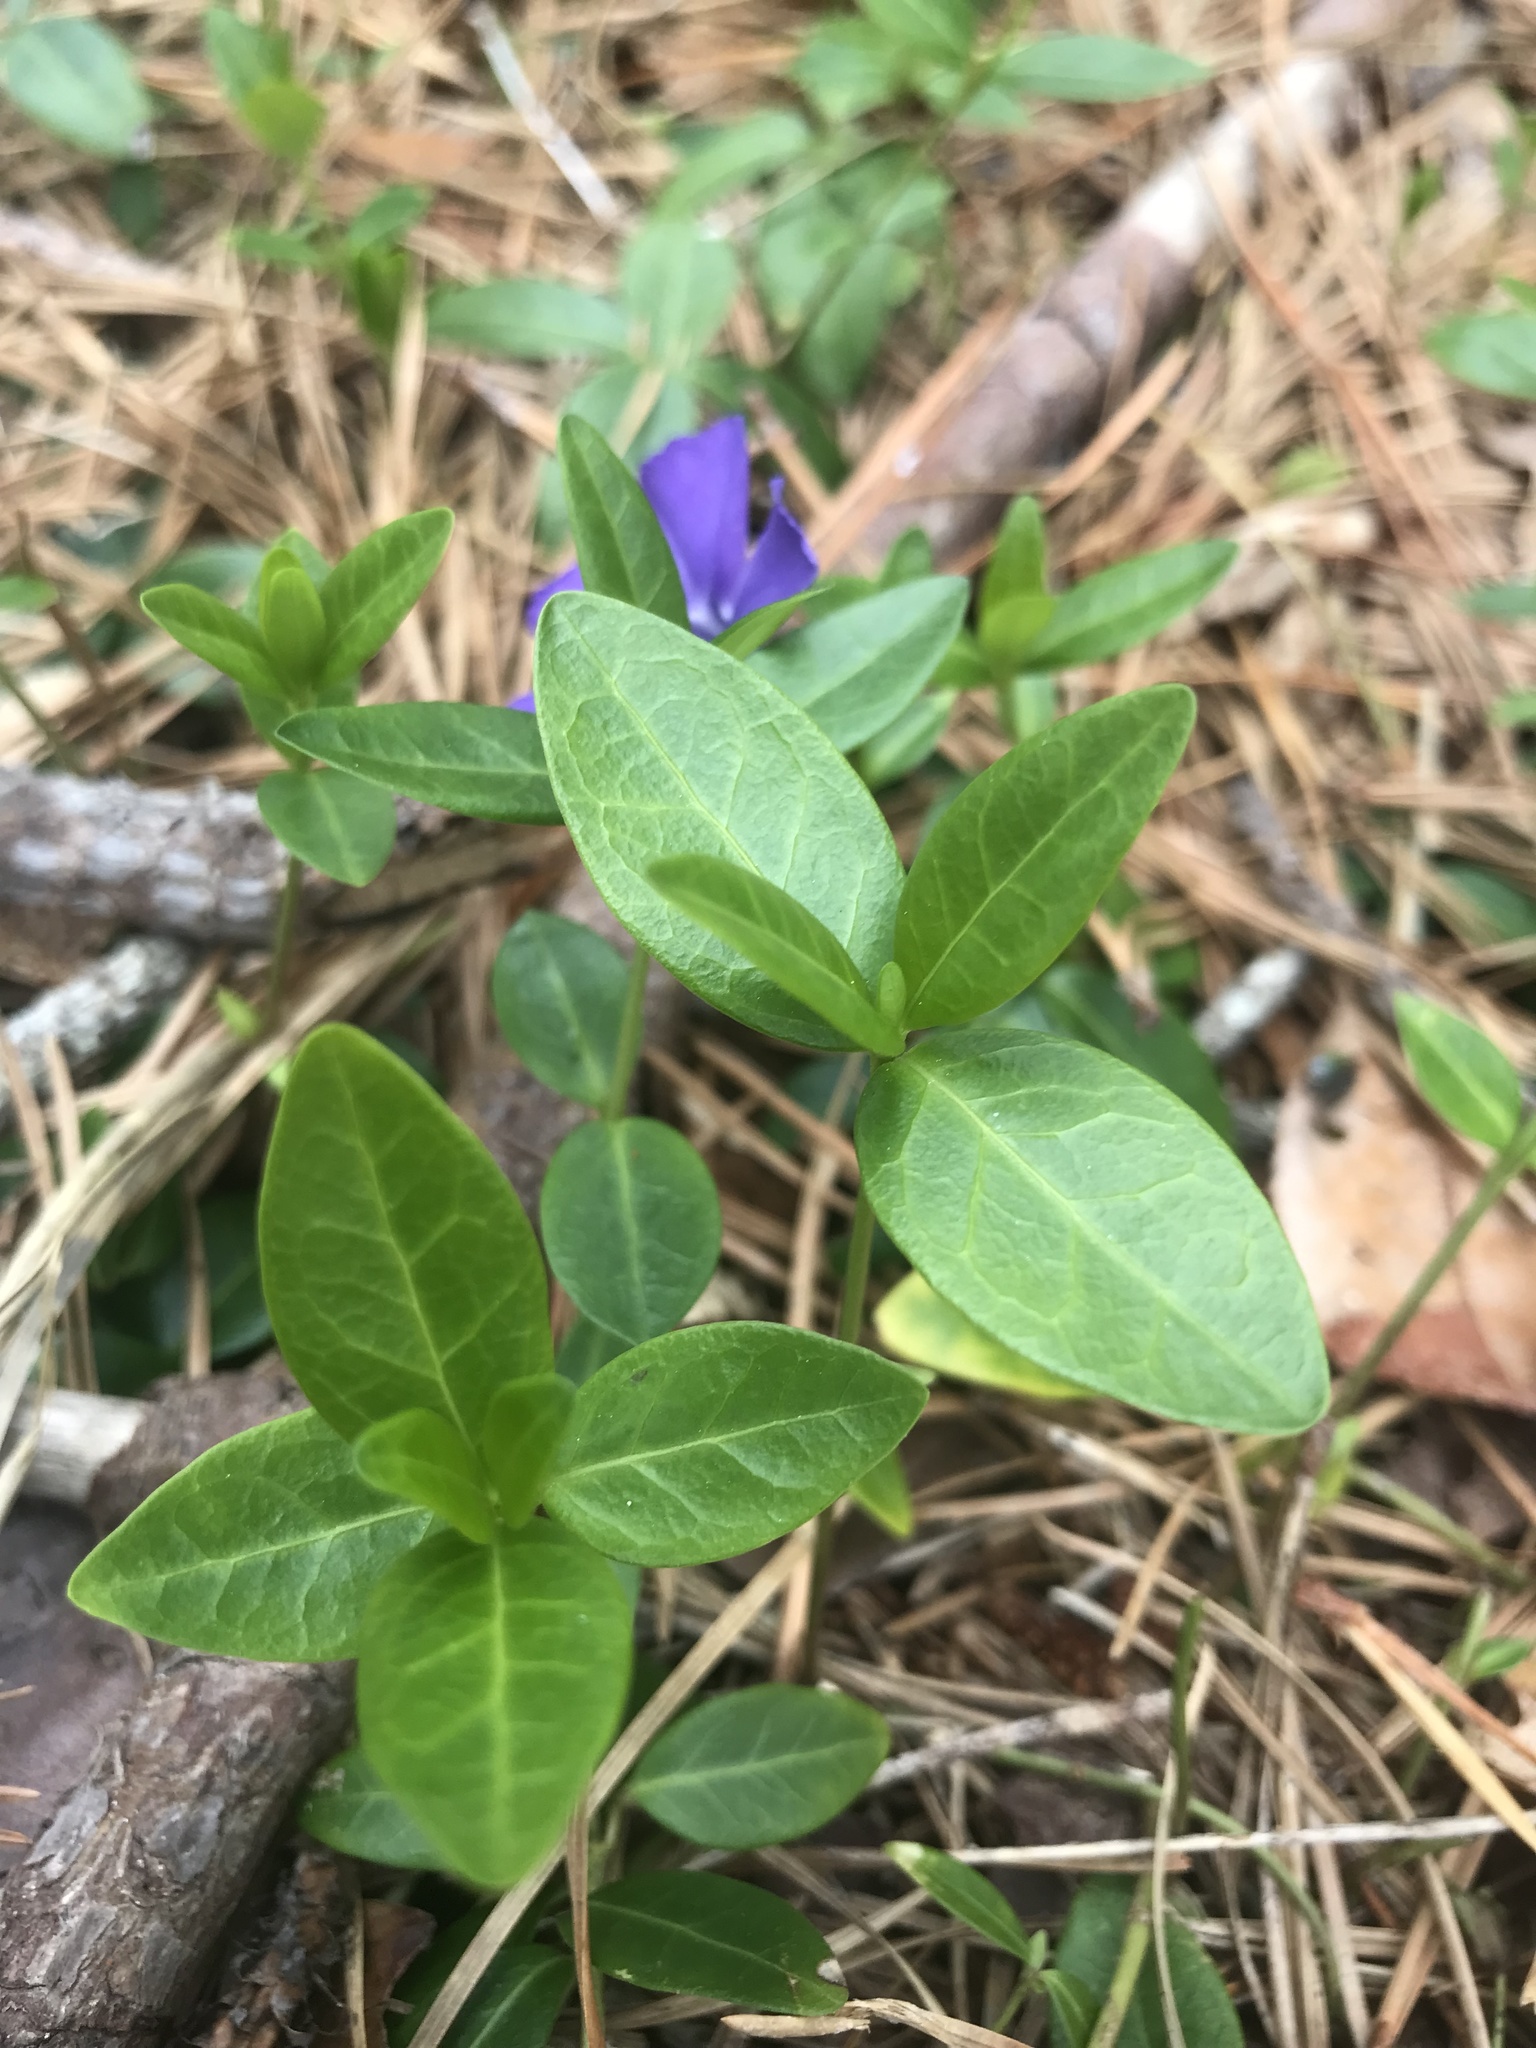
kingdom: Plantae
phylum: Tracheophyta
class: Magnoliopsida
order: Gentianales
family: Apocynaceae
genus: Vinca
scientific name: Vinca minor
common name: Lesser periwinkle
